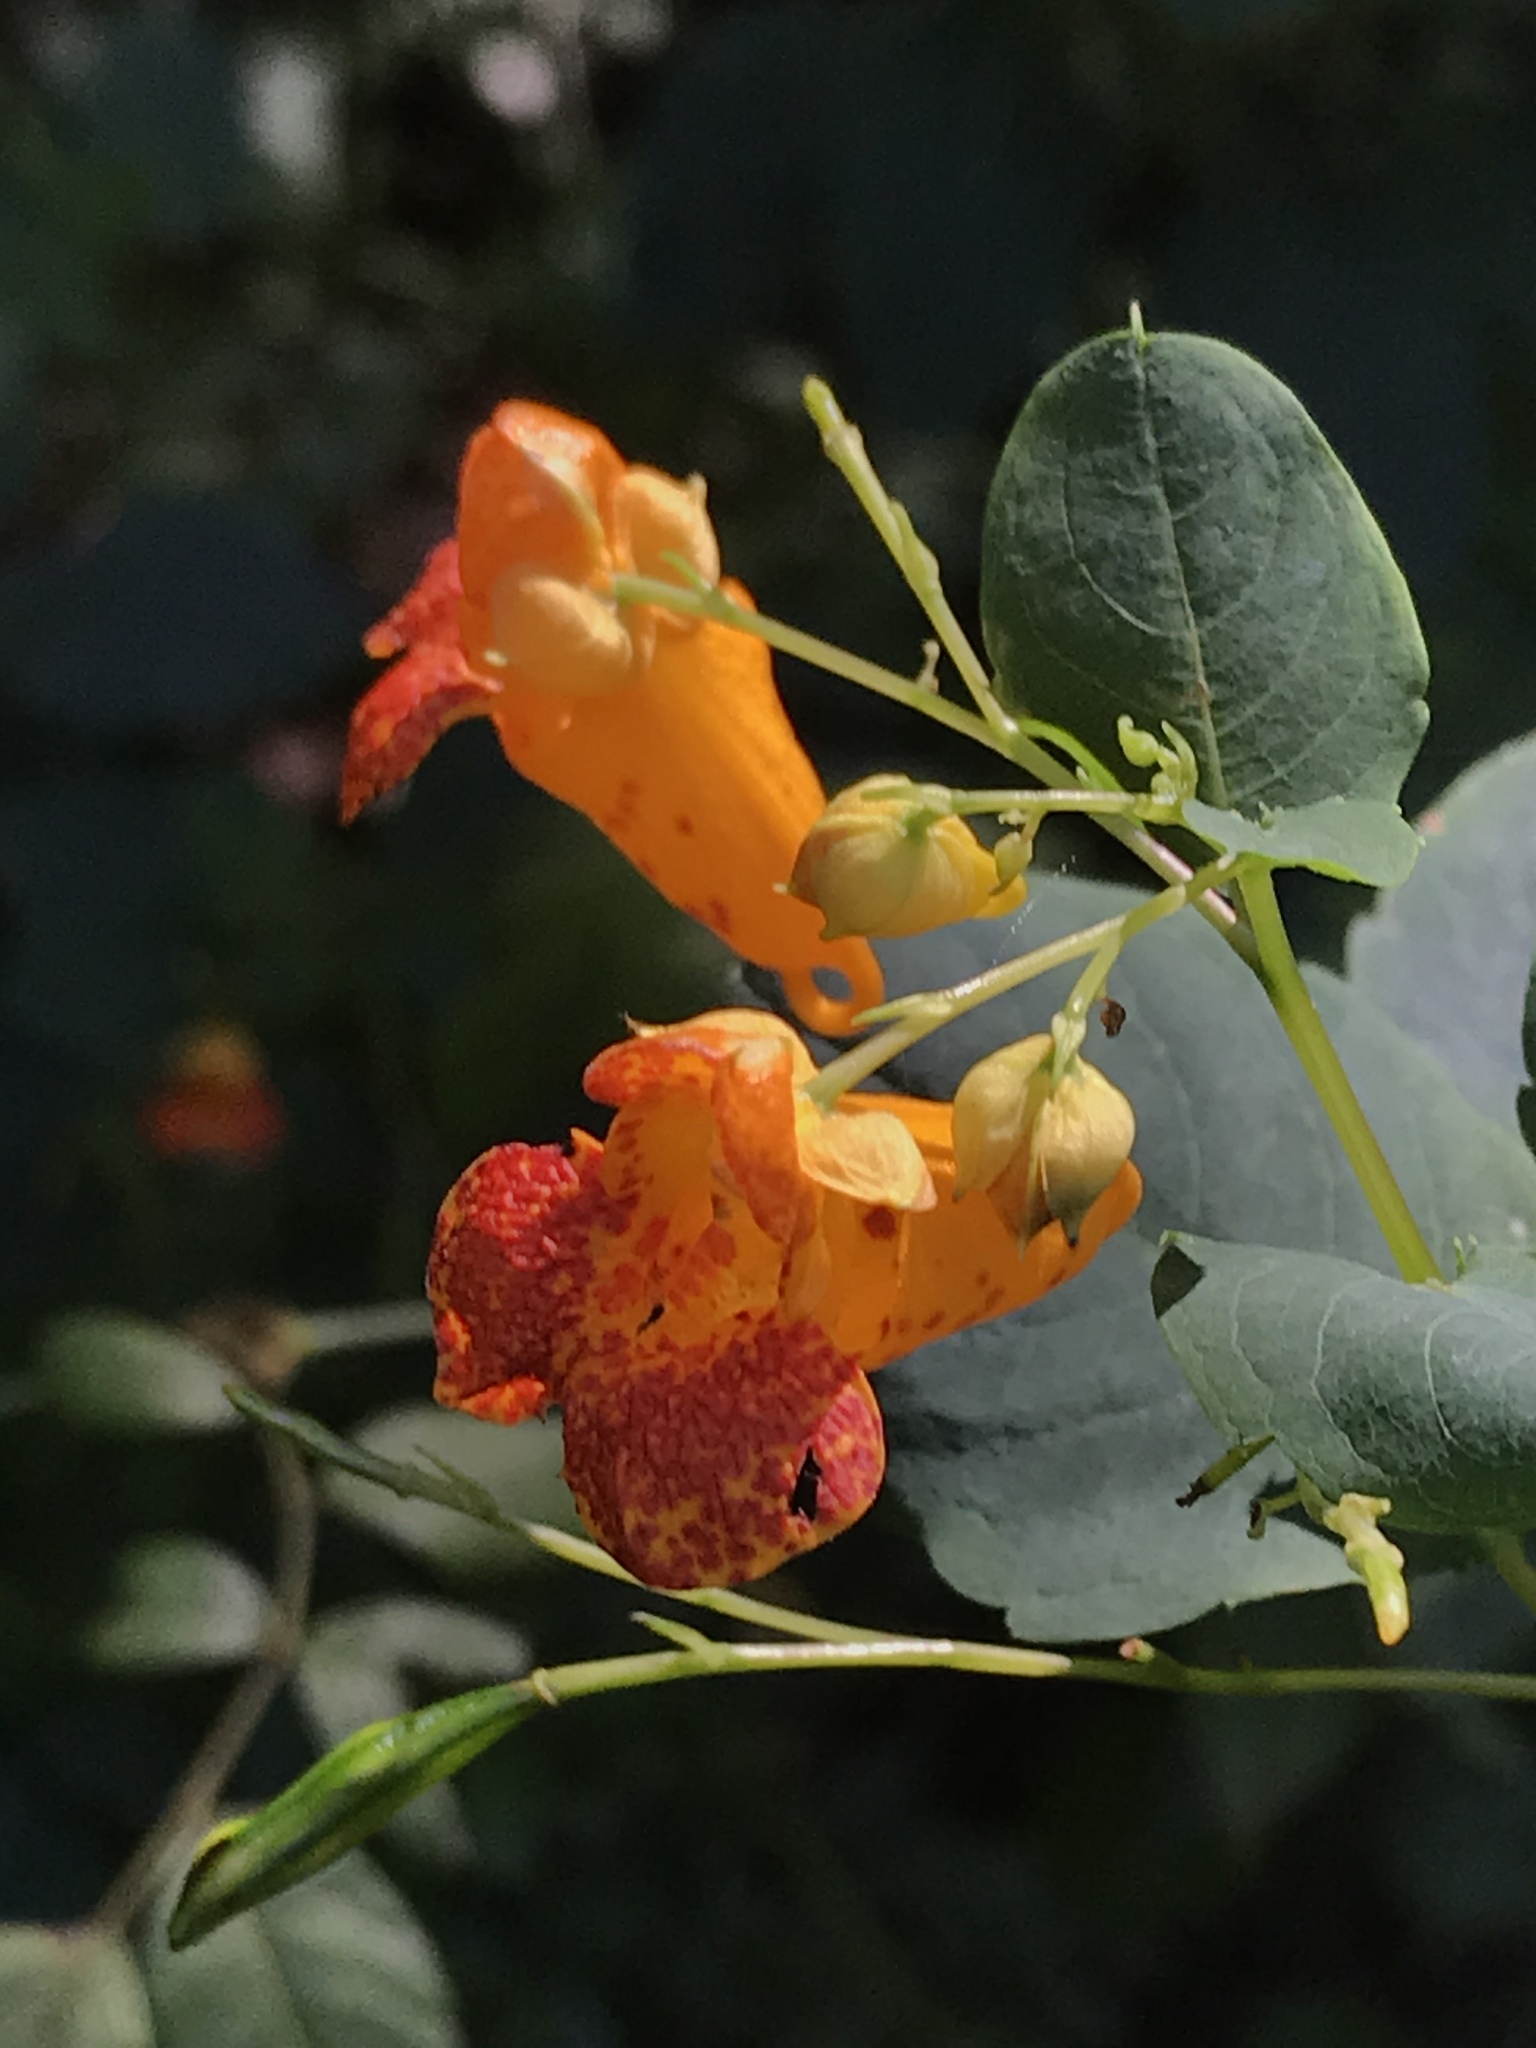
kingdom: Plantae
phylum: Tracheophyta
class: Magnoliopsida
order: Ericales
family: Balsaminaceae
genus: Impatiens
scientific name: Impatiens capensis
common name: Orange balsam
